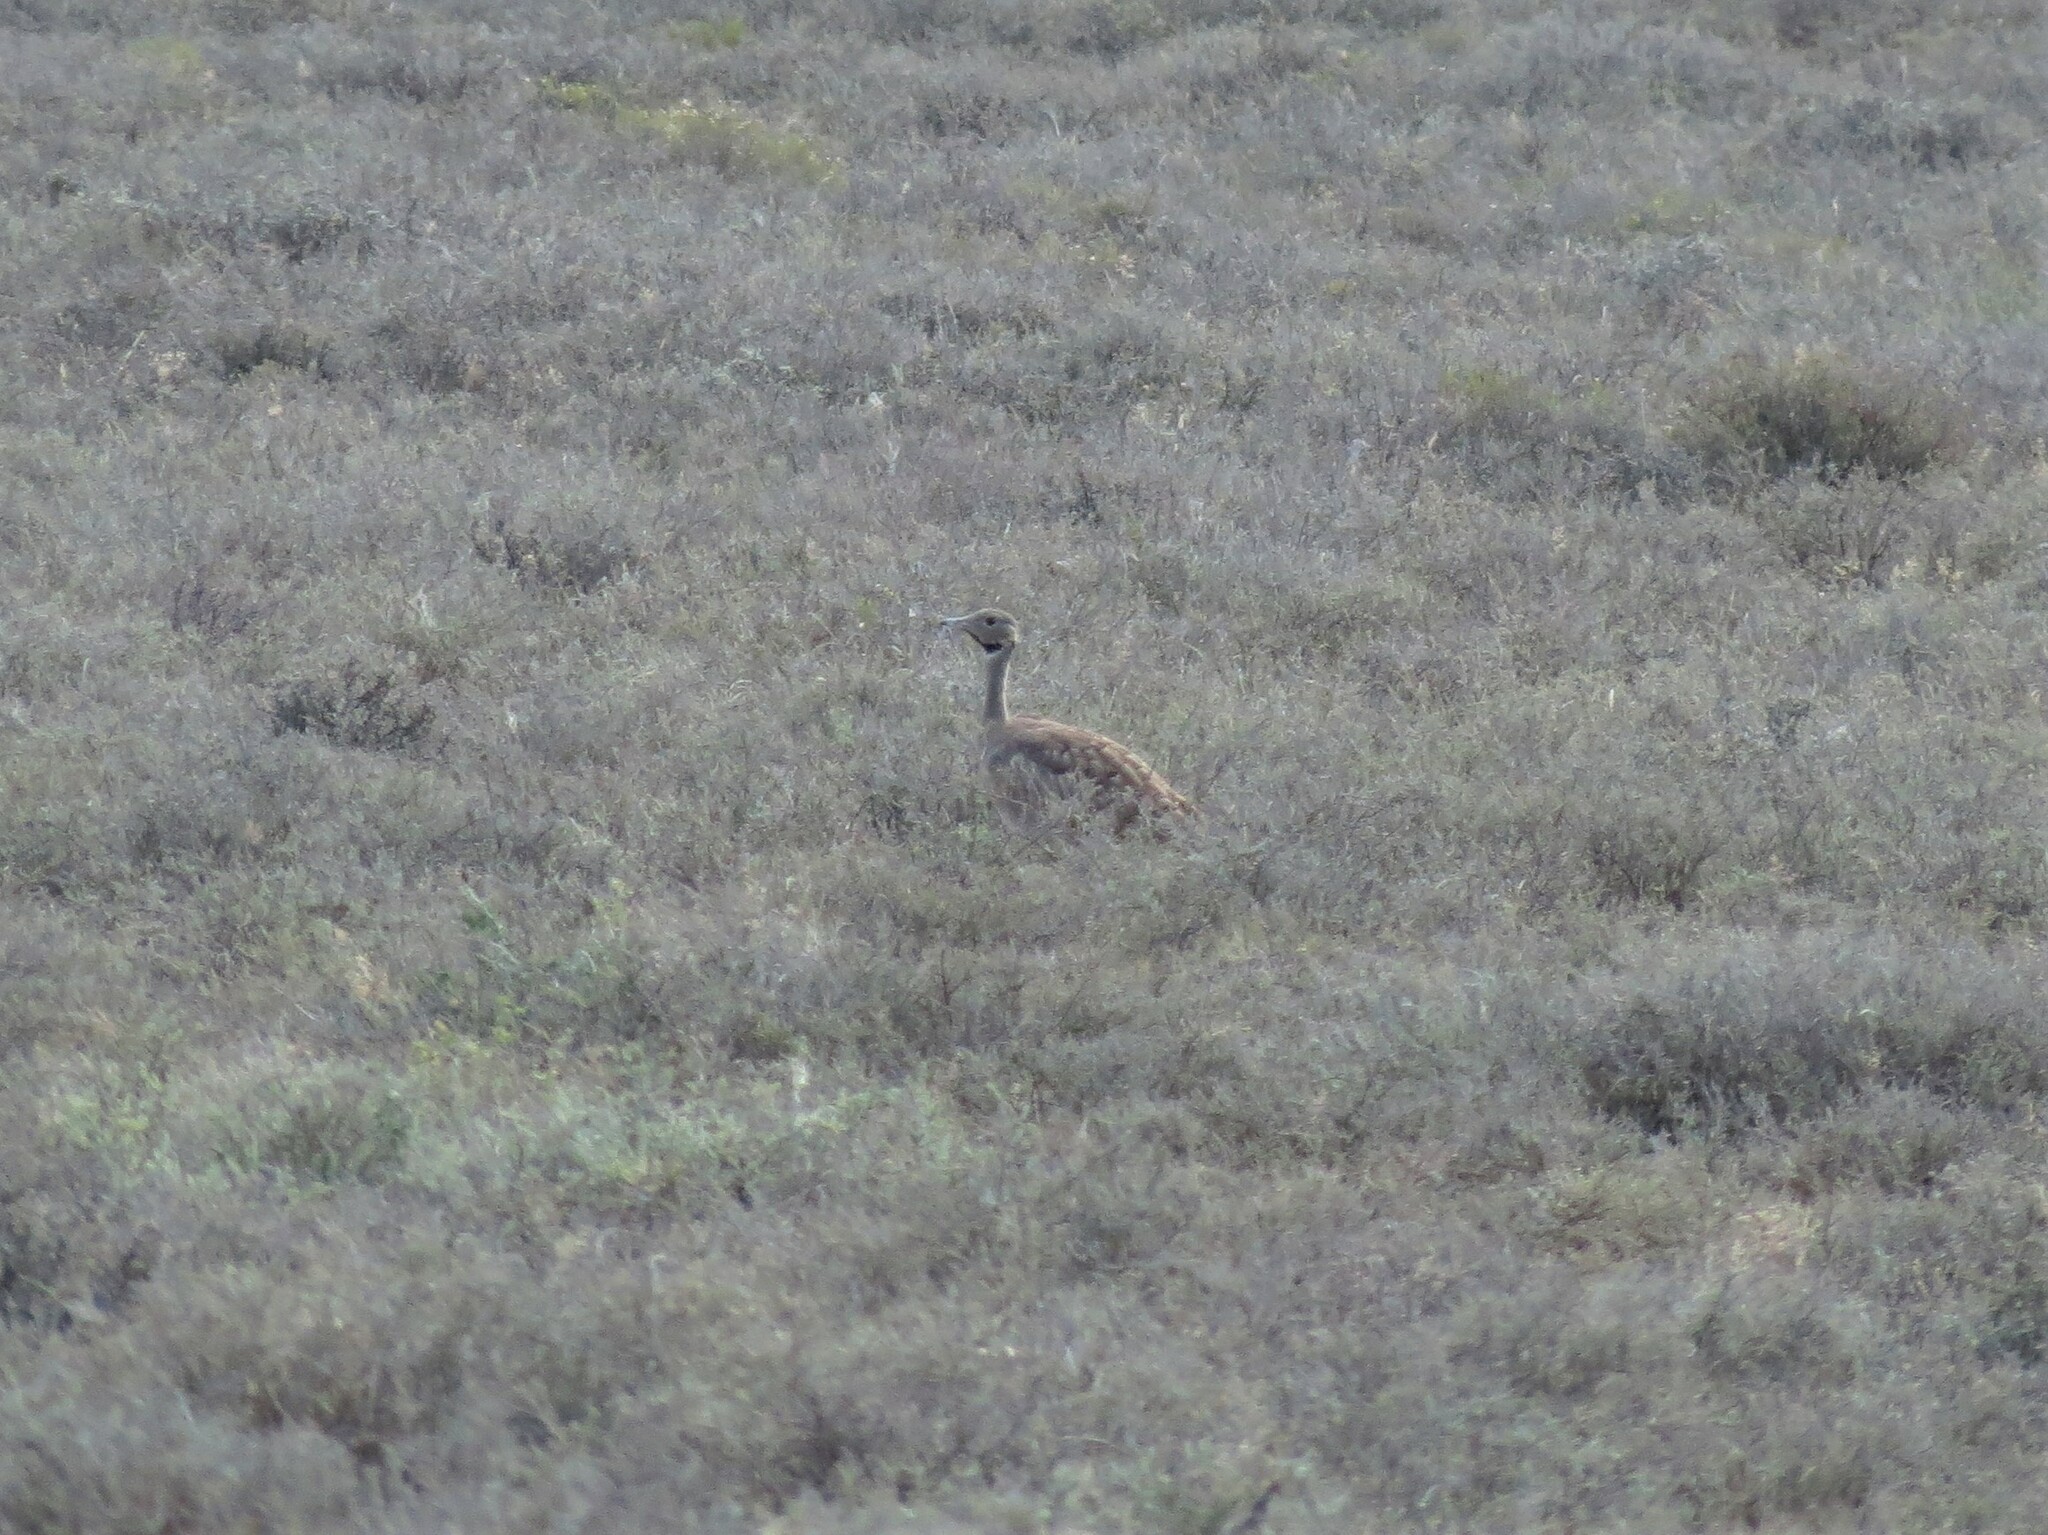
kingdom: Animalia
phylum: Chordata
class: Aves
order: Otidiformes
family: Otididae
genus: Eupodotis
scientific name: Eupodotis vigorsii
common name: Karoo korhaan
